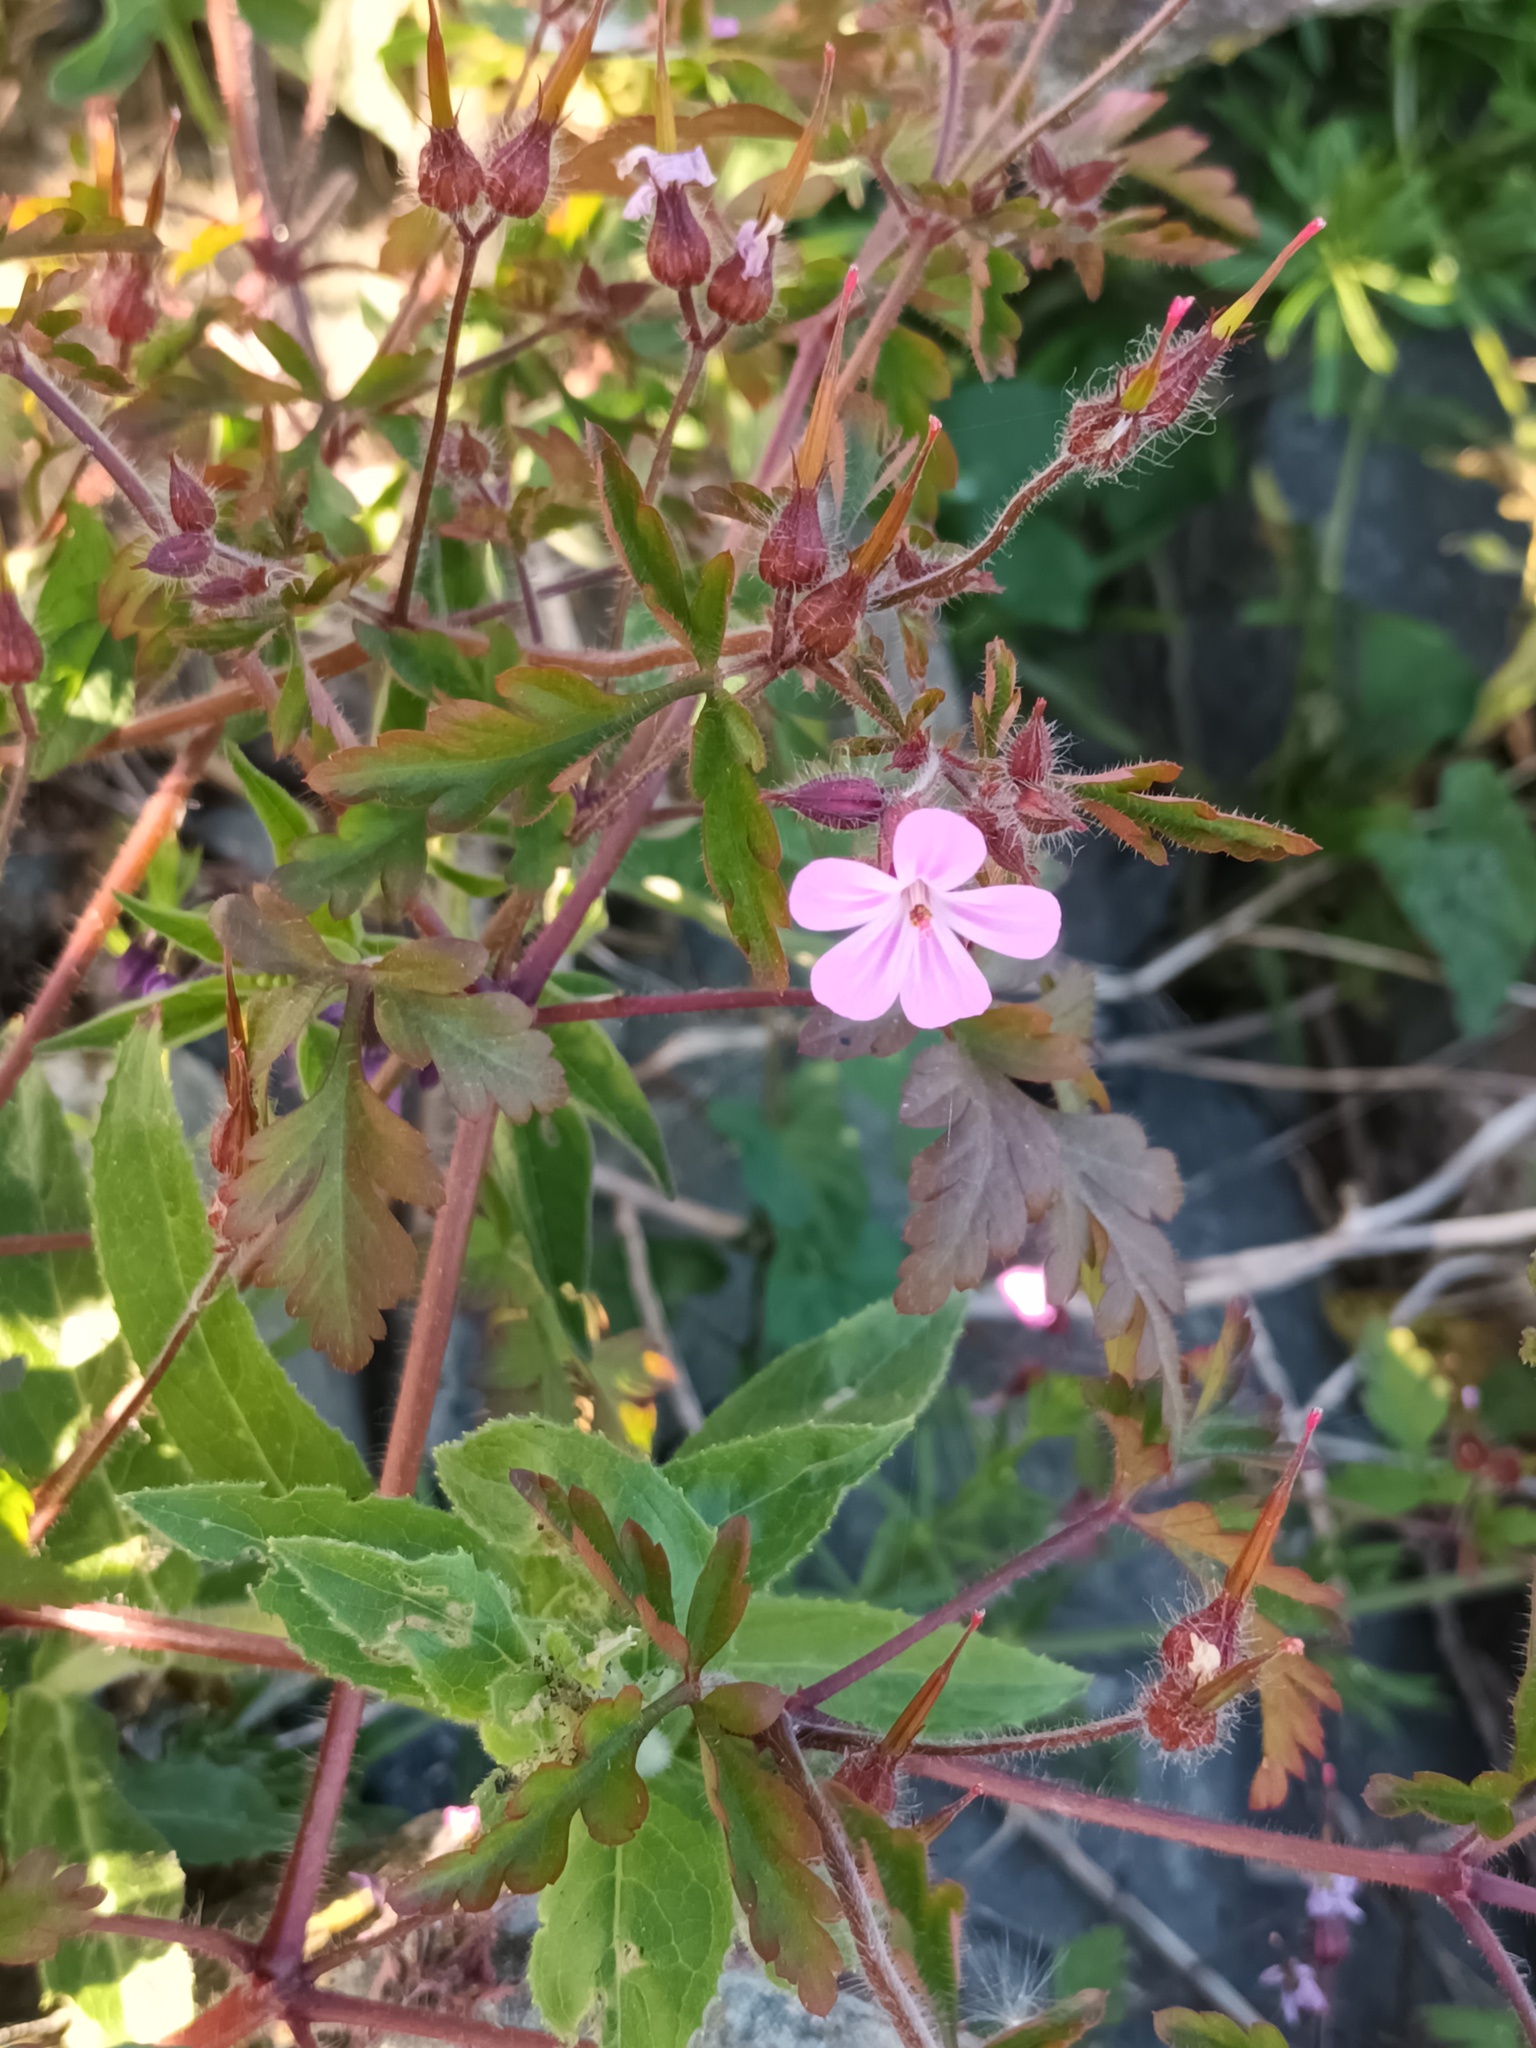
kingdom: Plantae
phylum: Tracheophyta
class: Magnoliopsida
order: Geraniales
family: Geraniaceae
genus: Geranium
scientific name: Geranium robertianum
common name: Herb-robert
